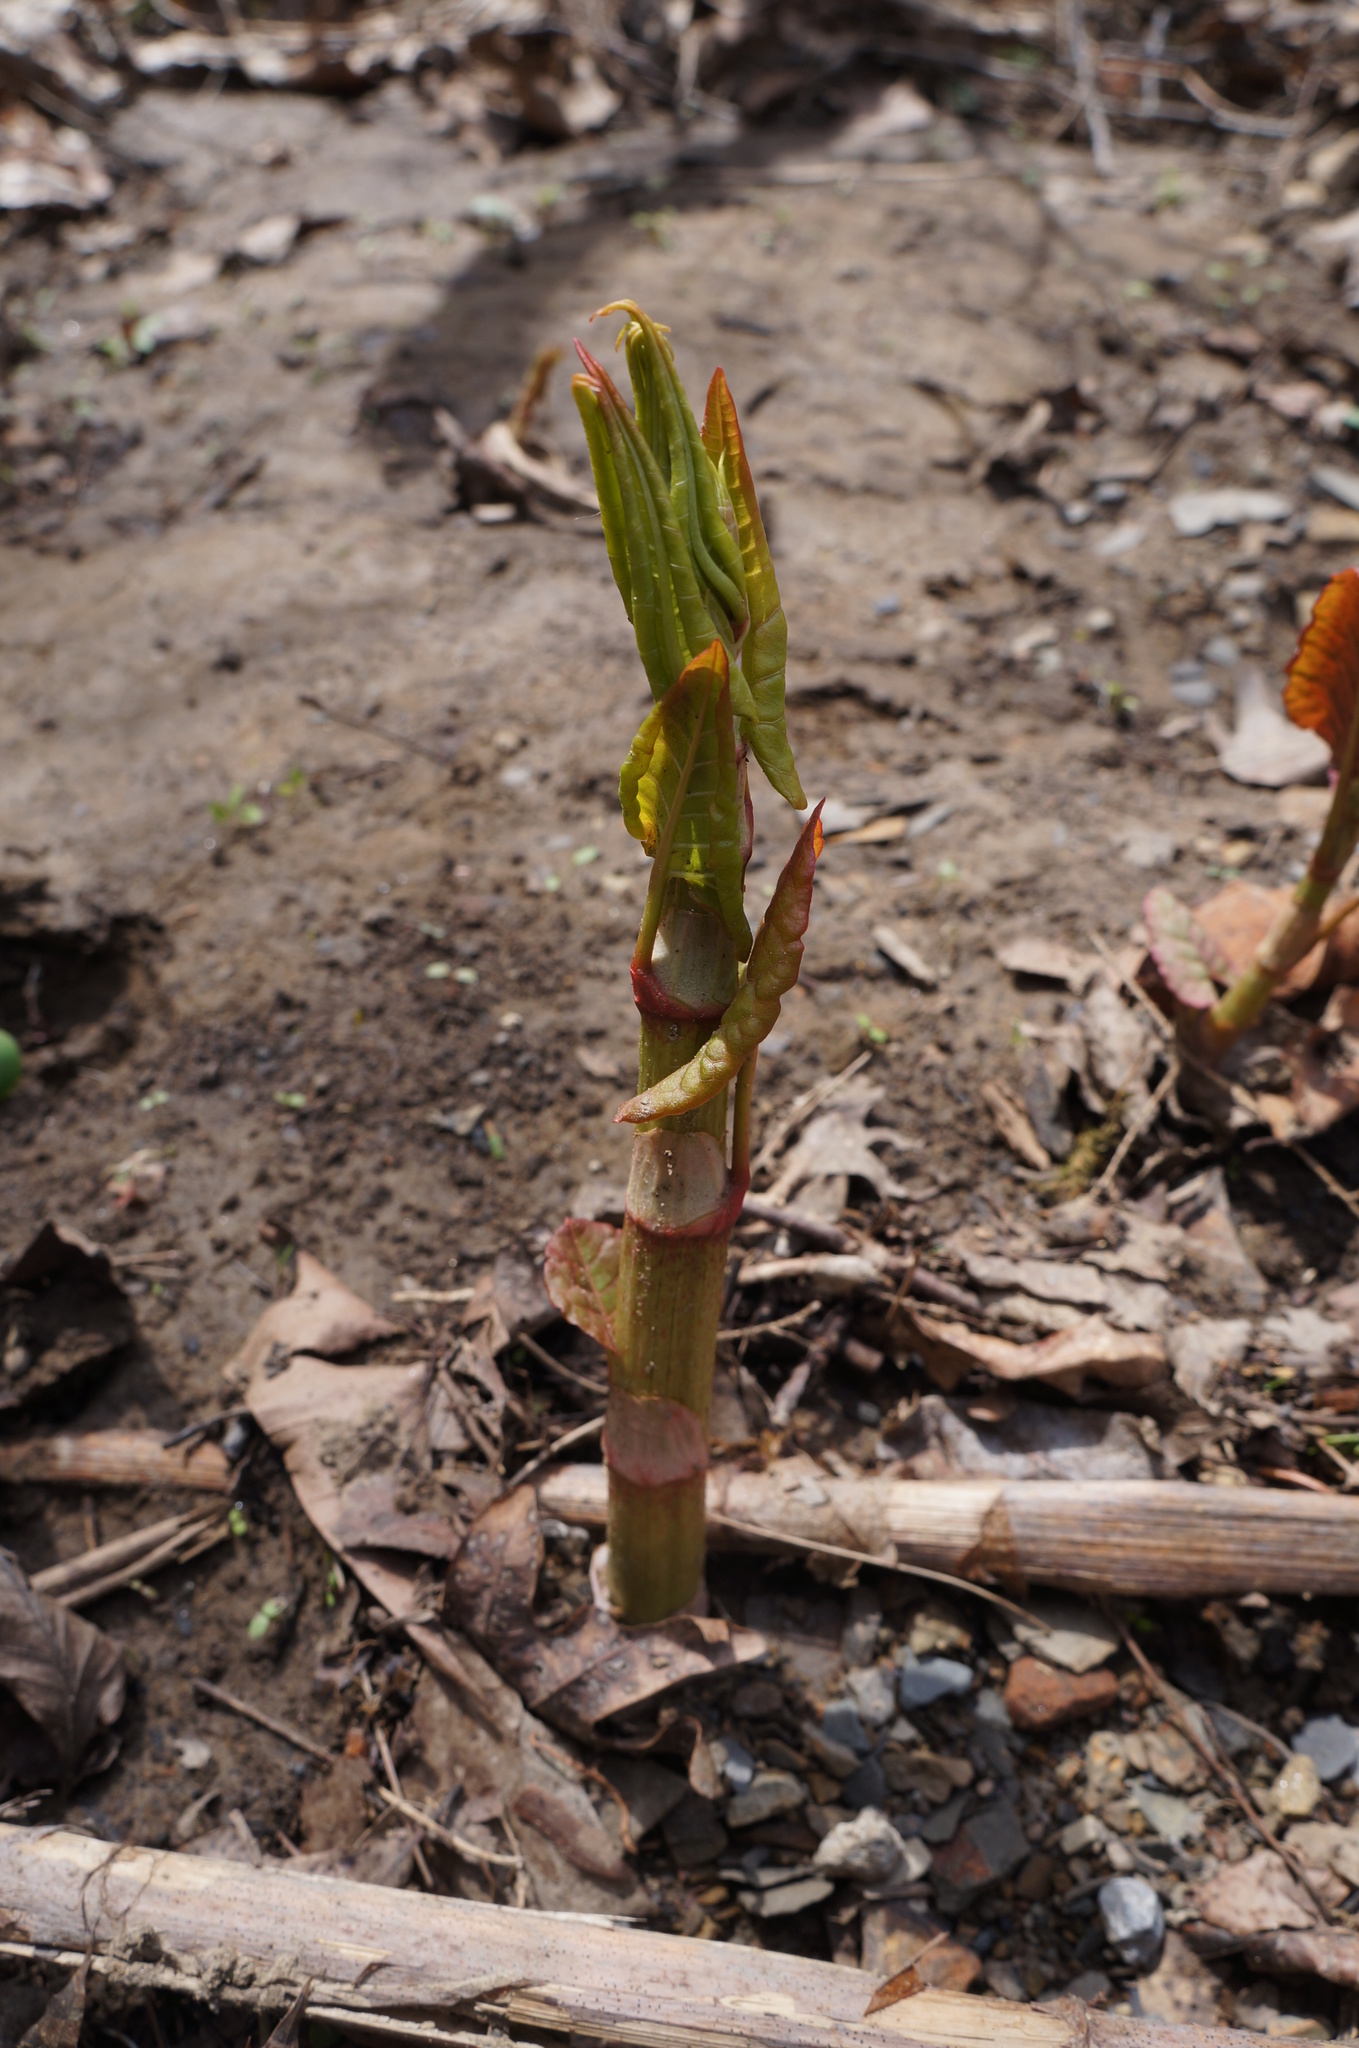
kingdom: Plantae
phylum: Tracheophyta
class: Magnoliopsida
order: Caryophyllales
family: Polygonaceae
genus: Reynoutria
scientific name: Reynoutria japonica
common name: Japanese knotweed
